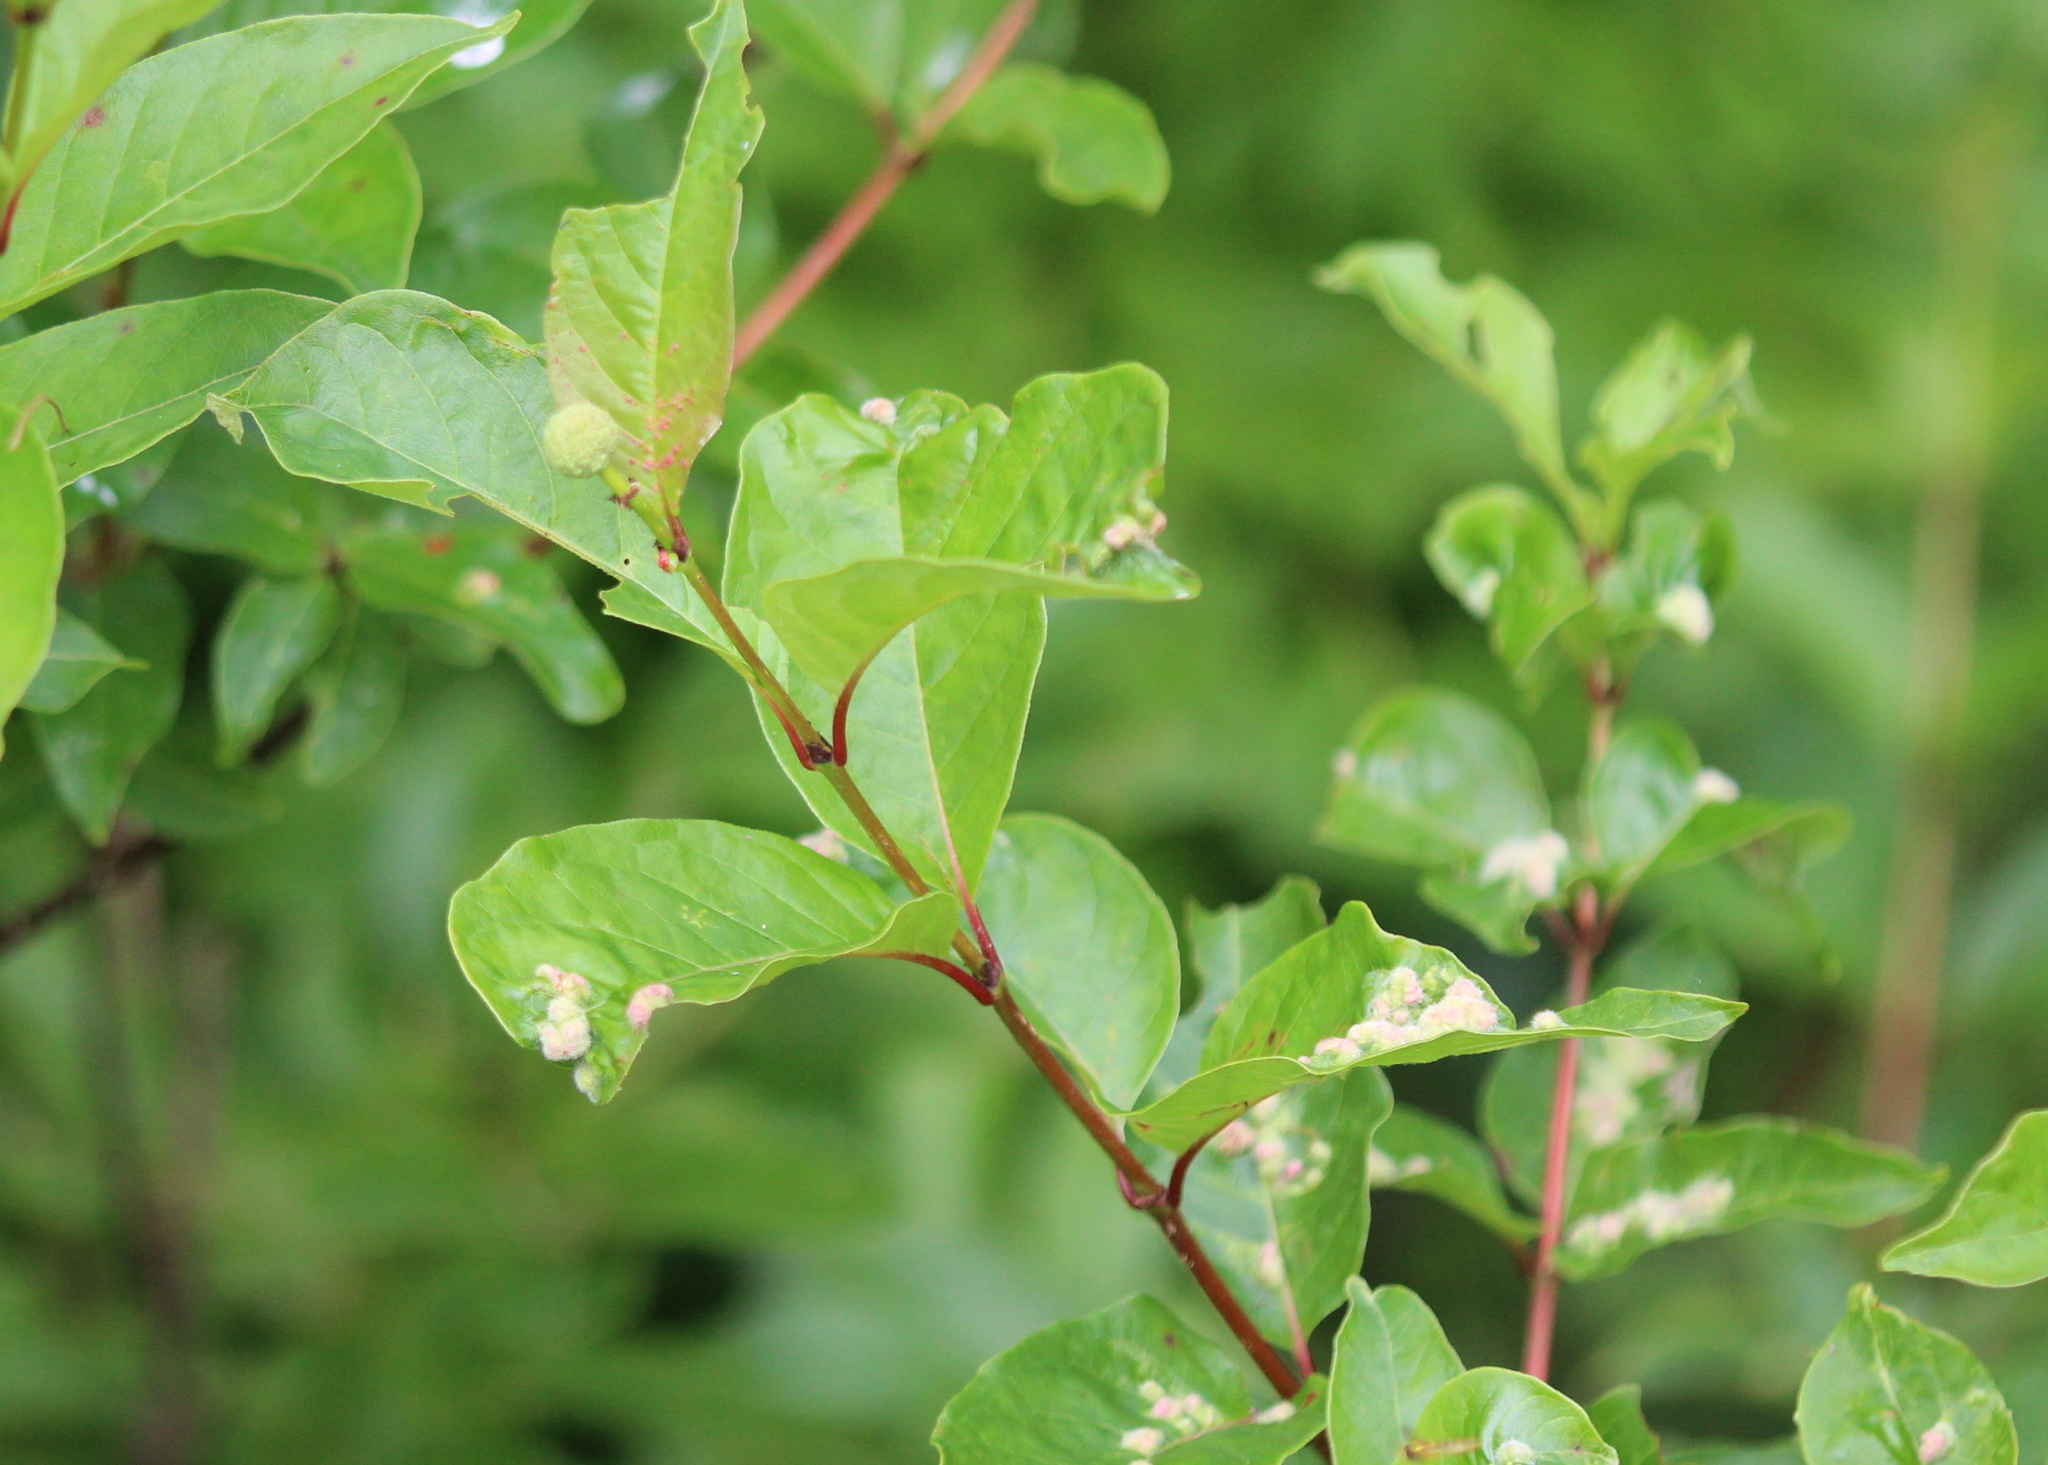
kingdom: Animalia
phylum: Arthropoda
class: Arachnida
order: Trombidiformes
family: Eriophyidae
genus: Aceria
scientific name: Aceria
